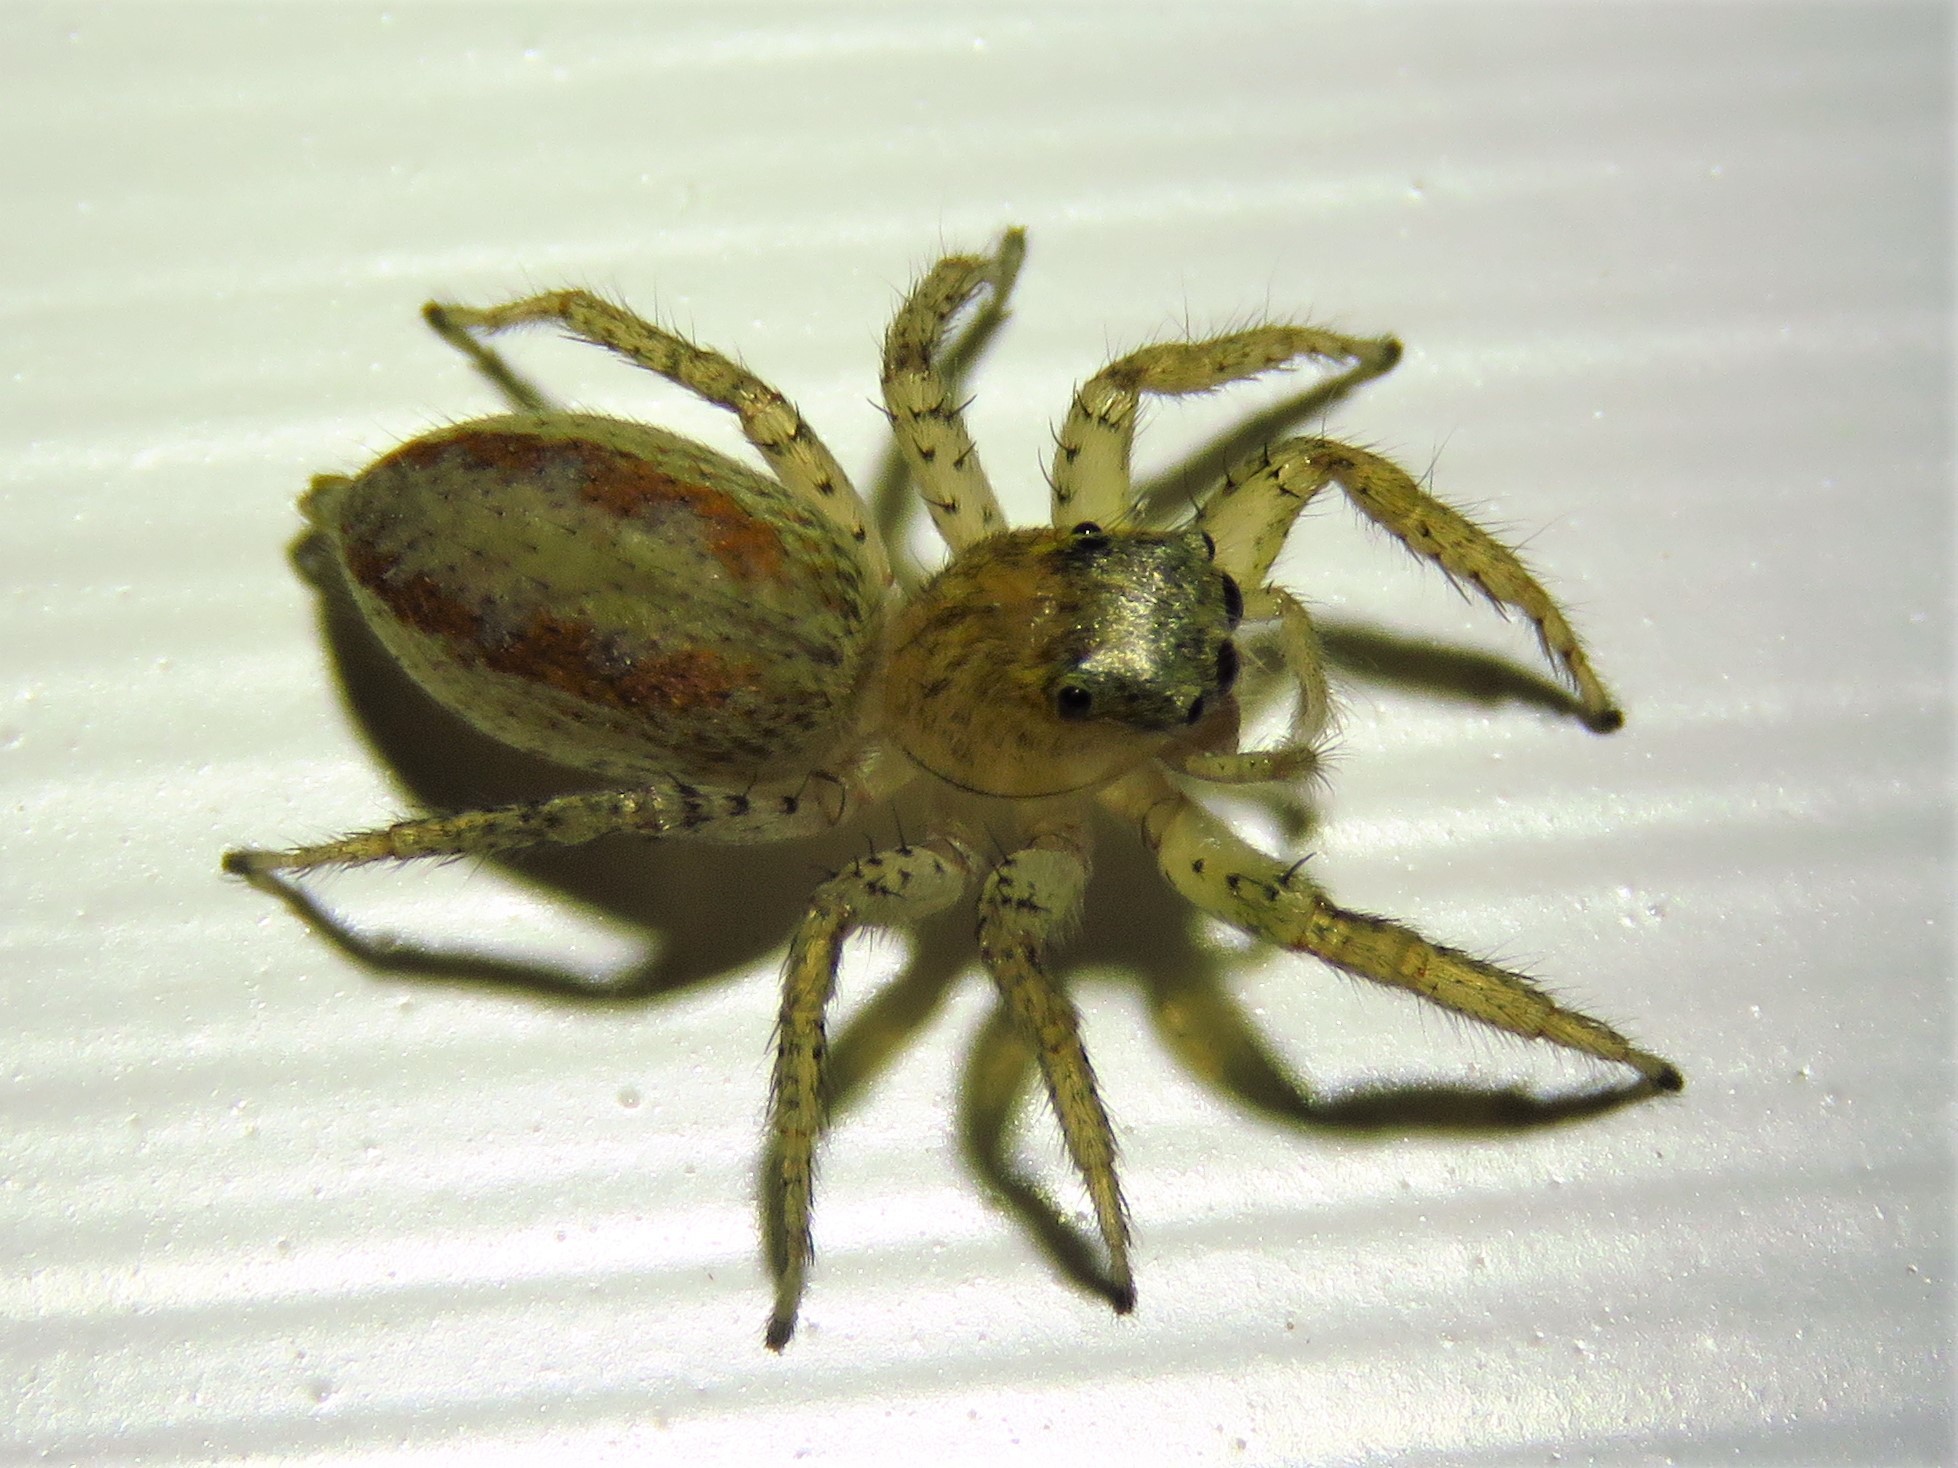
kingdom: Animalia
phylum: Arthropoda
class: Arachnida
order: Araneae
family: Salticidae
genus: Maevia
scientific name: Maevia inclemens
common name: Dimorphic jumper
